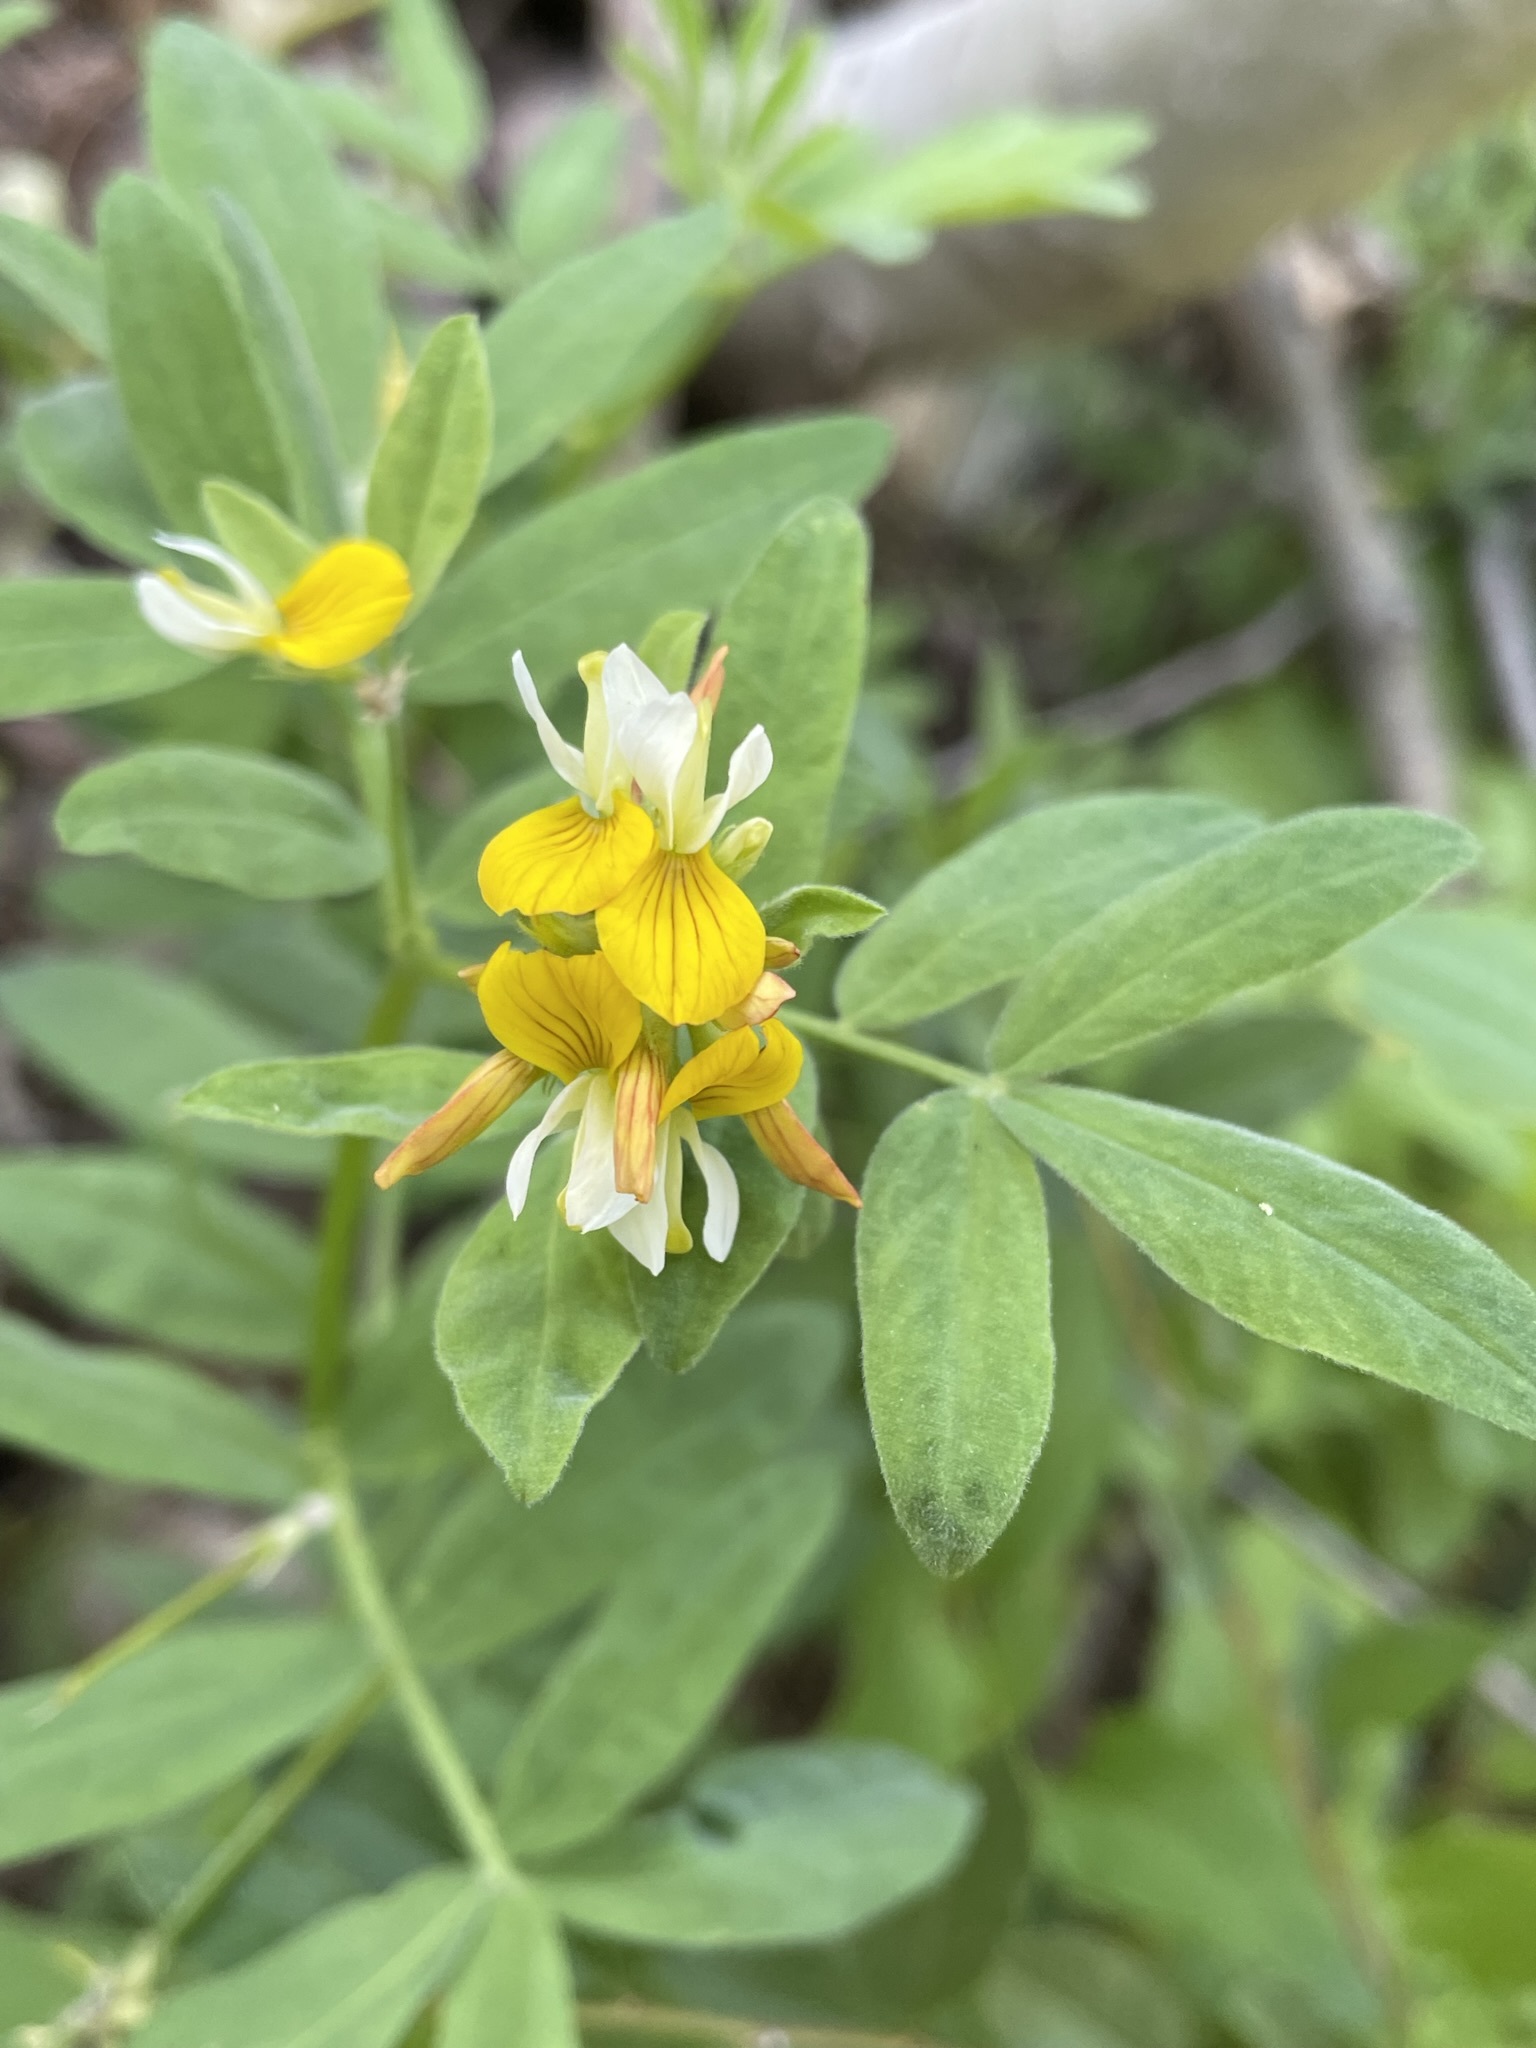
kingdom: Plantae
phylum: Tracheophyta
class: Magnoliopsida
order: Fabales
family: Fabaceae
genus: Hosackia
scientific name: Hosackia oblongifolia
